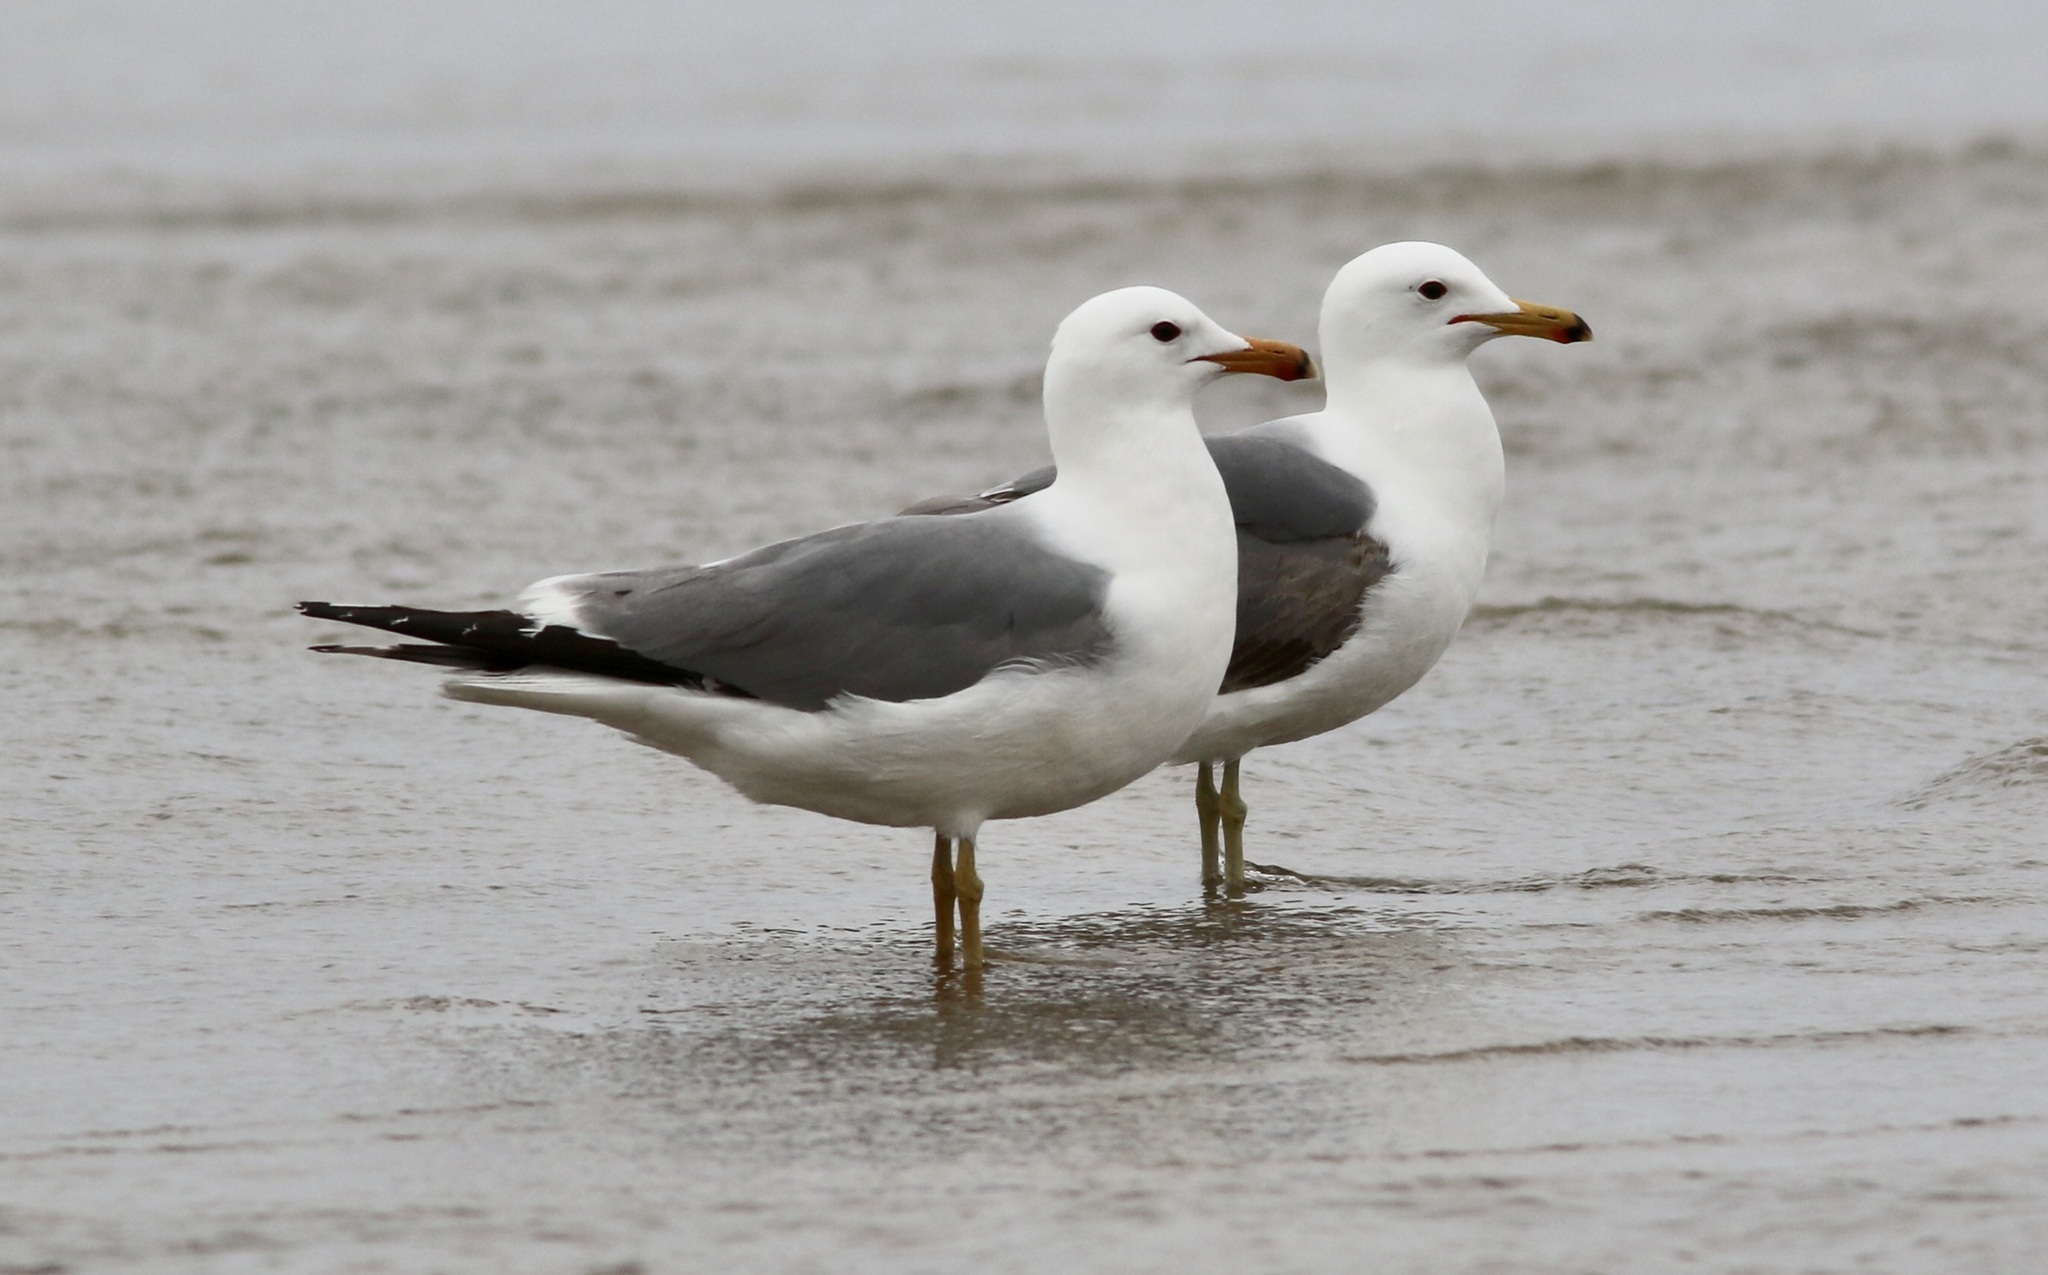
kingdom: Animalia
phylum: Chordata
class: Aves
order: Charadriiformes
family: Laridae
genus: Larus
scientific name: Larus californicus
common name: California gull
